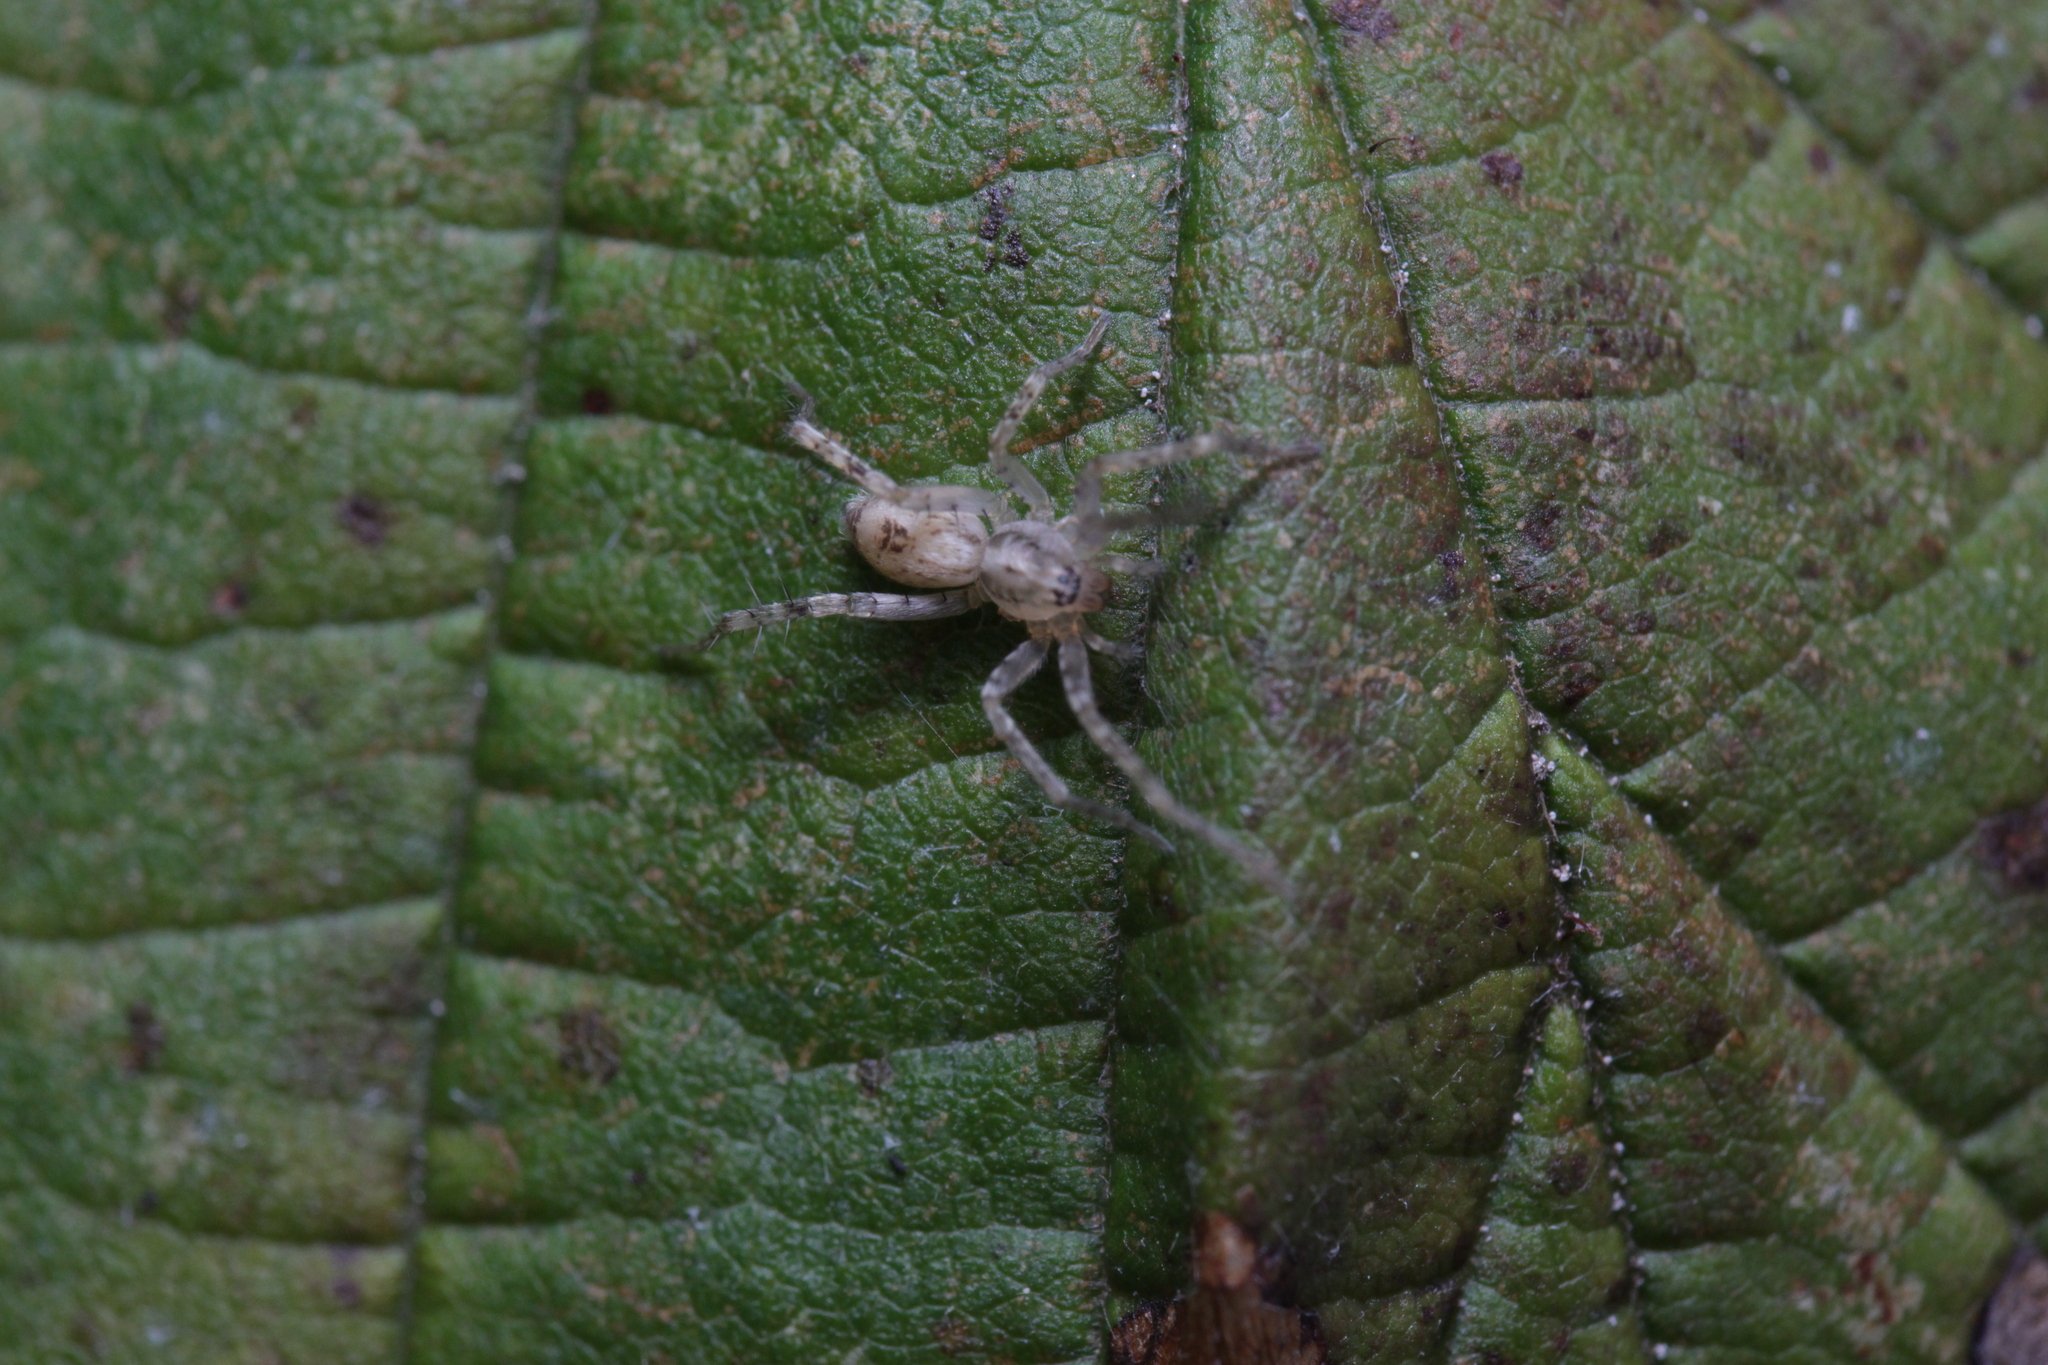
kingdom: Animalia
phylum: Arthropoda
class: Arachnida
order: Araneae
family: Anyphaenidae
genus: Anyphaena
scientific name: Anyphaena accentuata
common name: Buzzing spider
